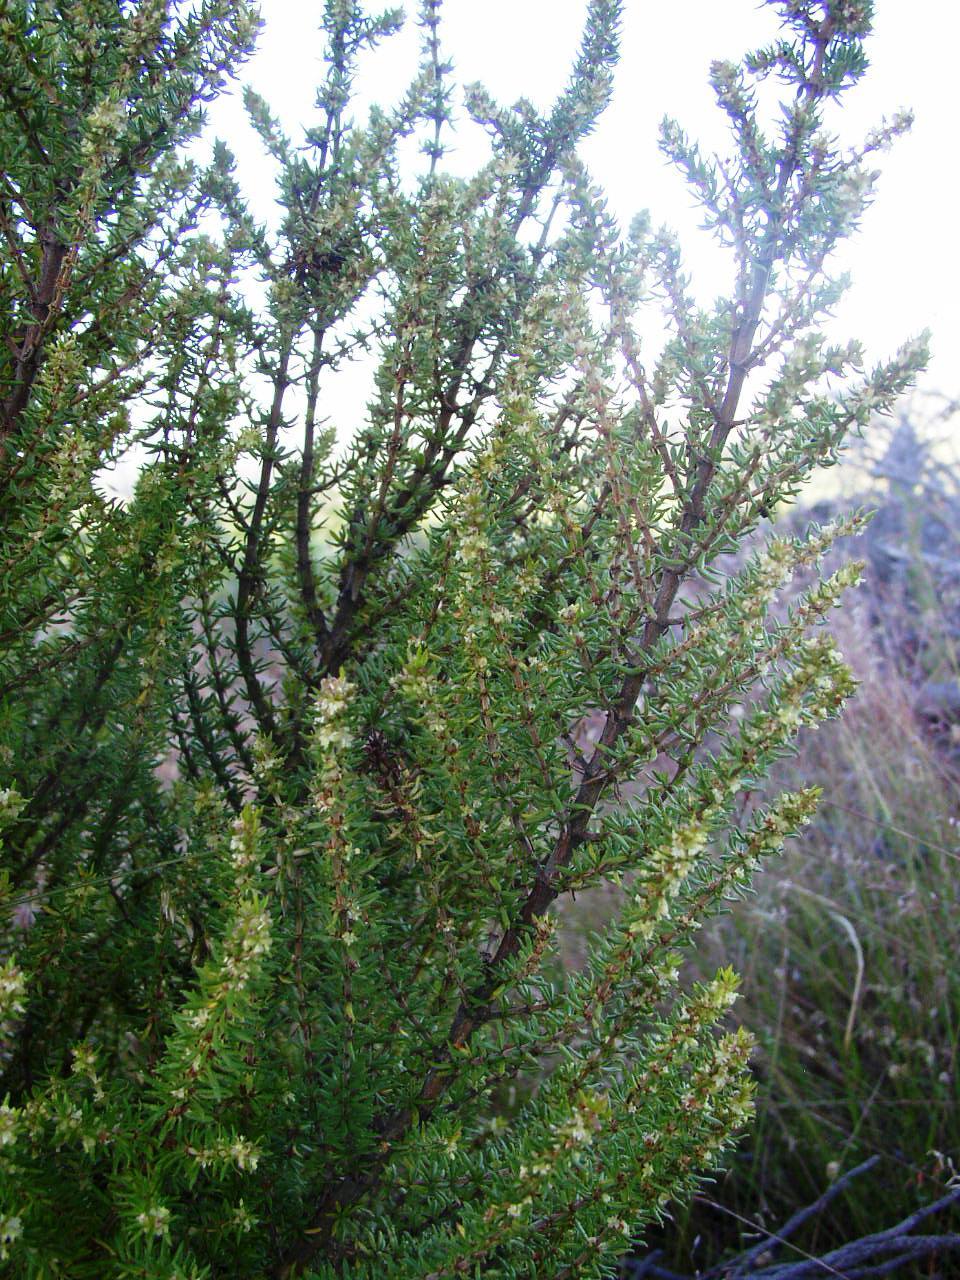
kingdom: Plantae
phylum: Tracheophyta
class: Magnoliopsida
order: Gentianales
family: Rubiaceae
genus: Anthospermum
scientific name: Anthospermum aethiopicum
